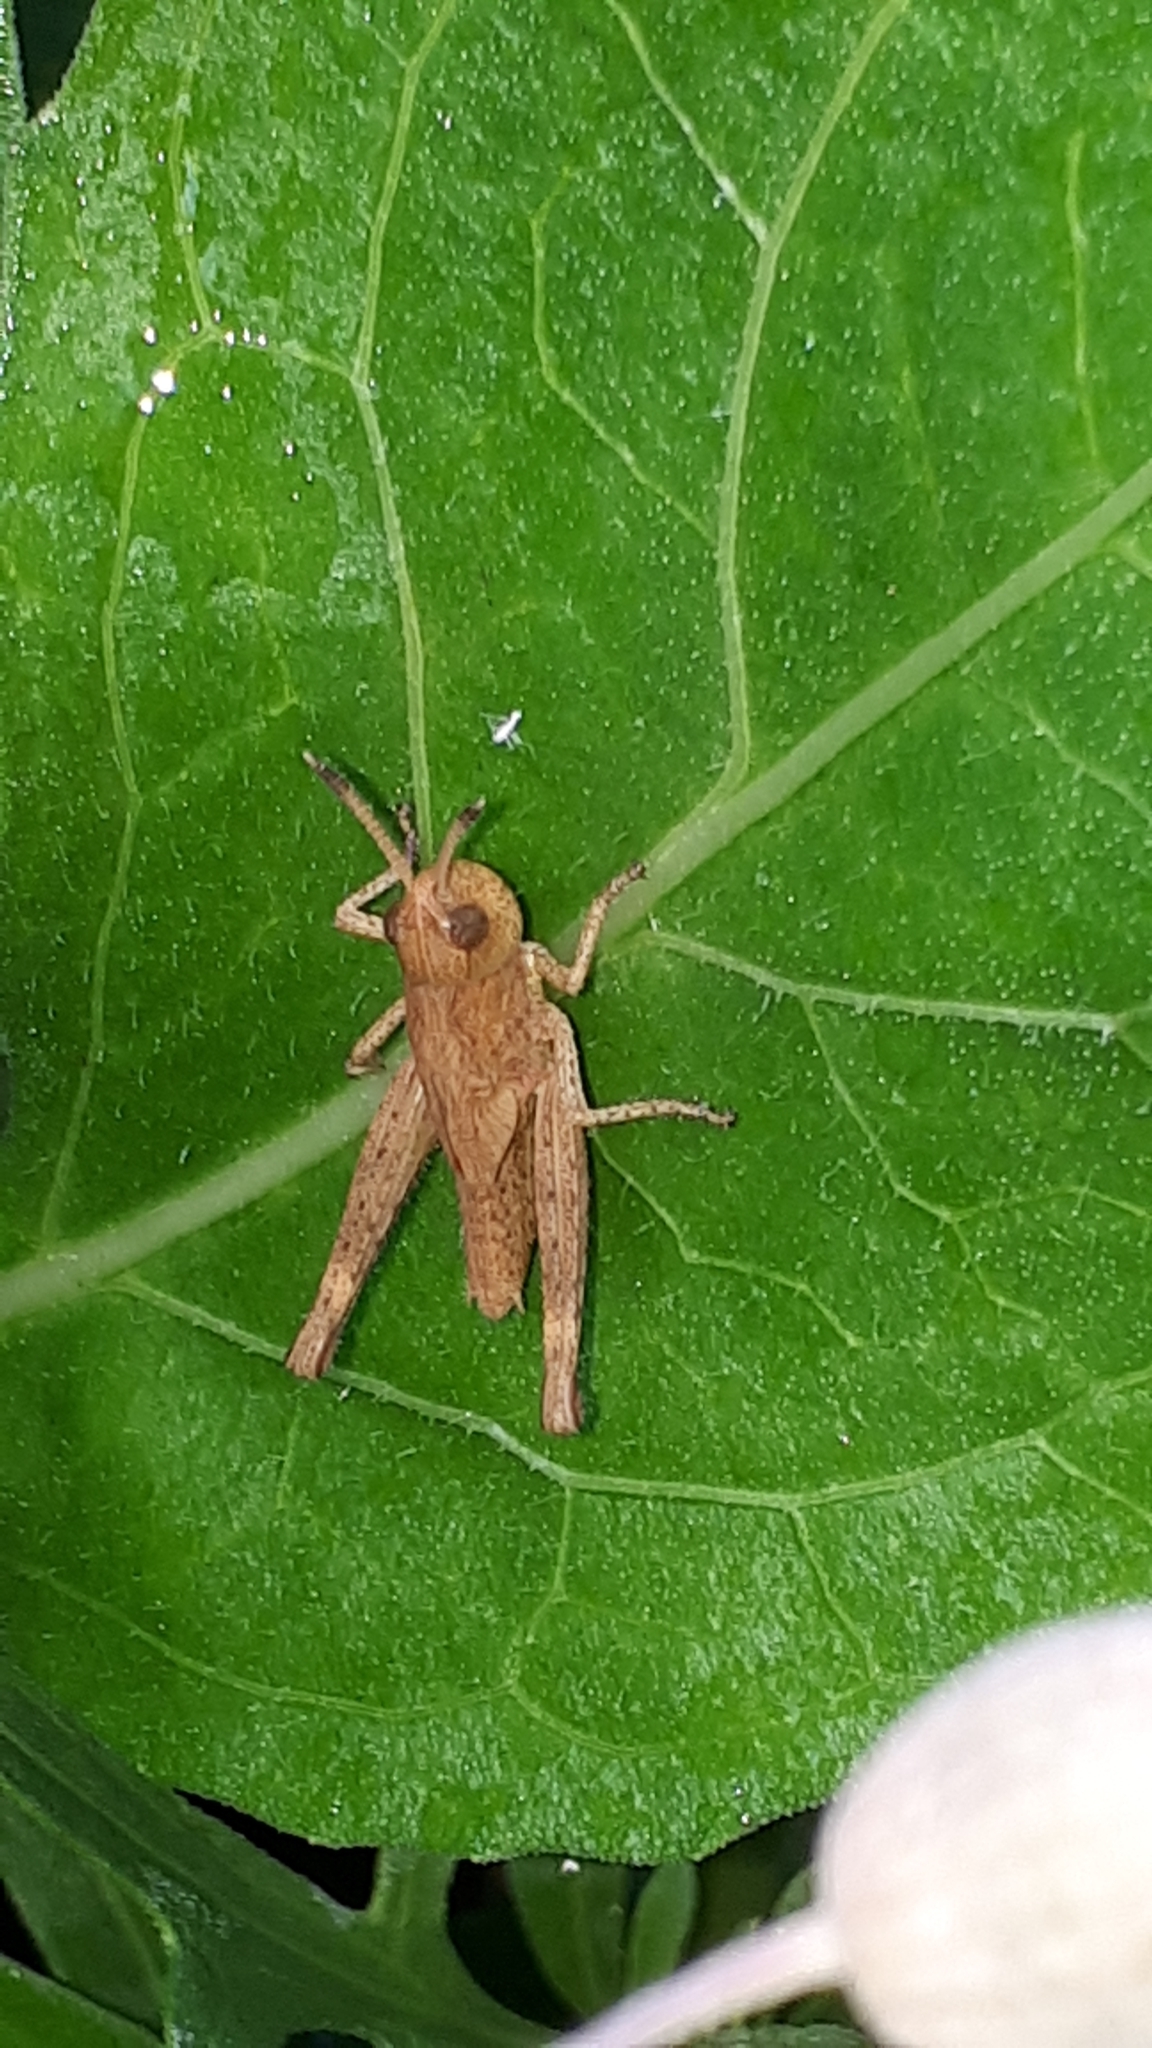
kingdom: Animalia
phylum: Arthropoda
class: Insecta
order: Orthoptera
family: Acrididae
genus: Gomphocerippus
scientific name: Gomphocerippus rufus
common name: Rufous grasshopper
